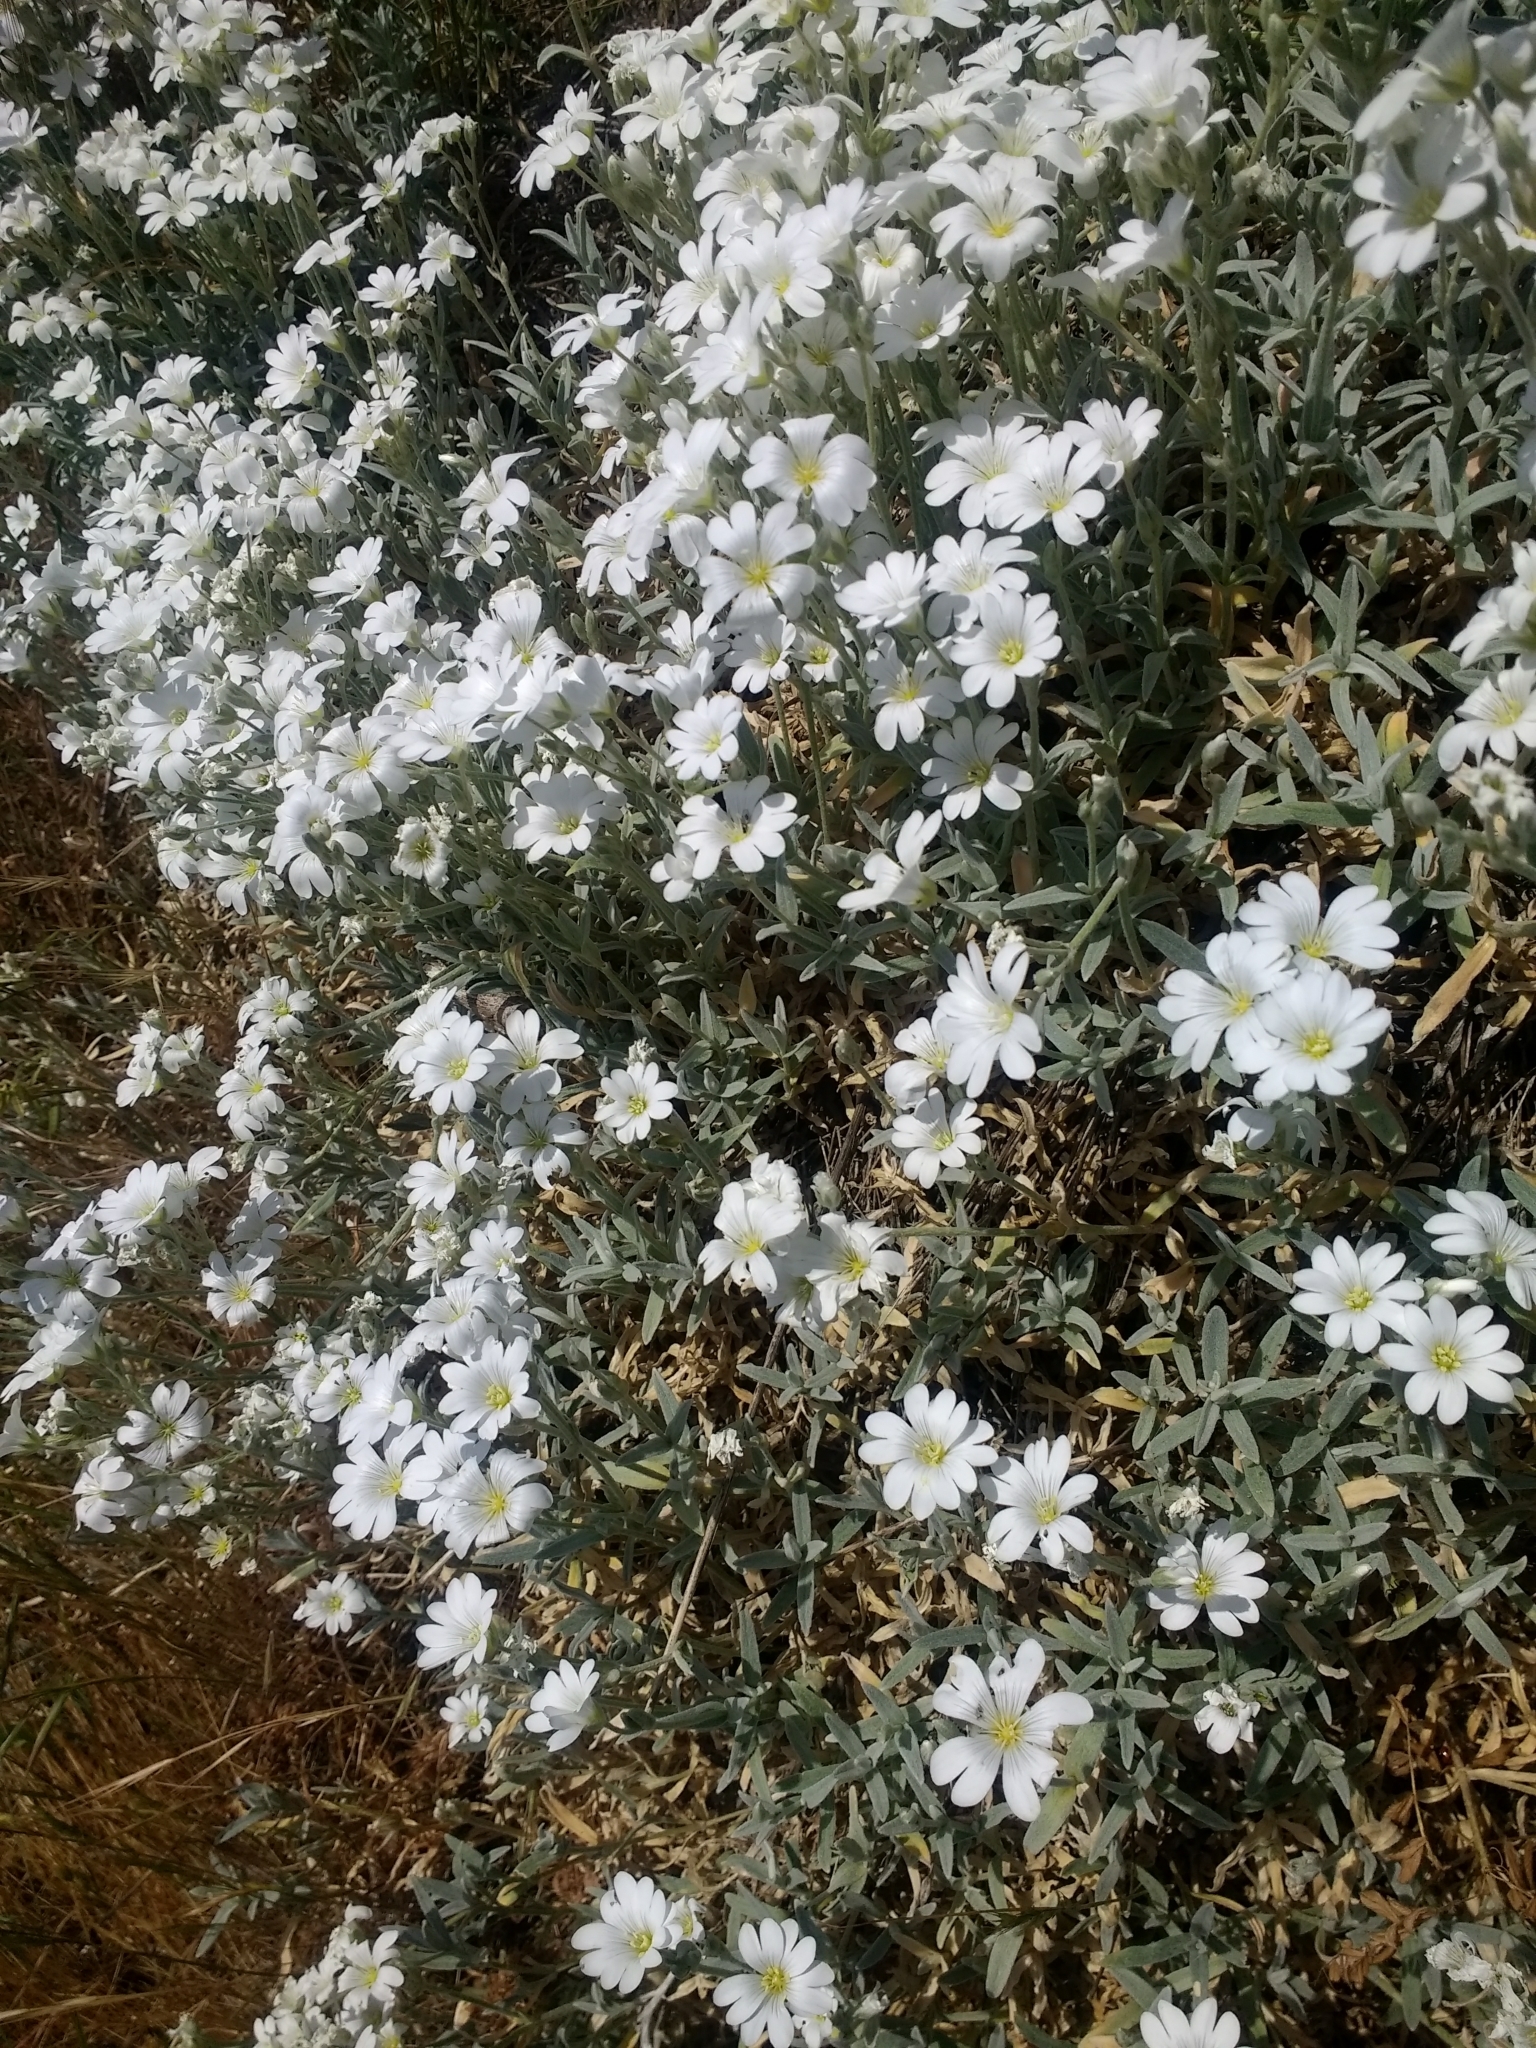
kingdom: Plantae
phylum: Tracheophyta
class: Magnoliopsida
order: Caryophyllales
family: Caryophyllaceae
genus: Cerastium
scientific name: Cerastium tomentosum
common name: Snow-in-summer
